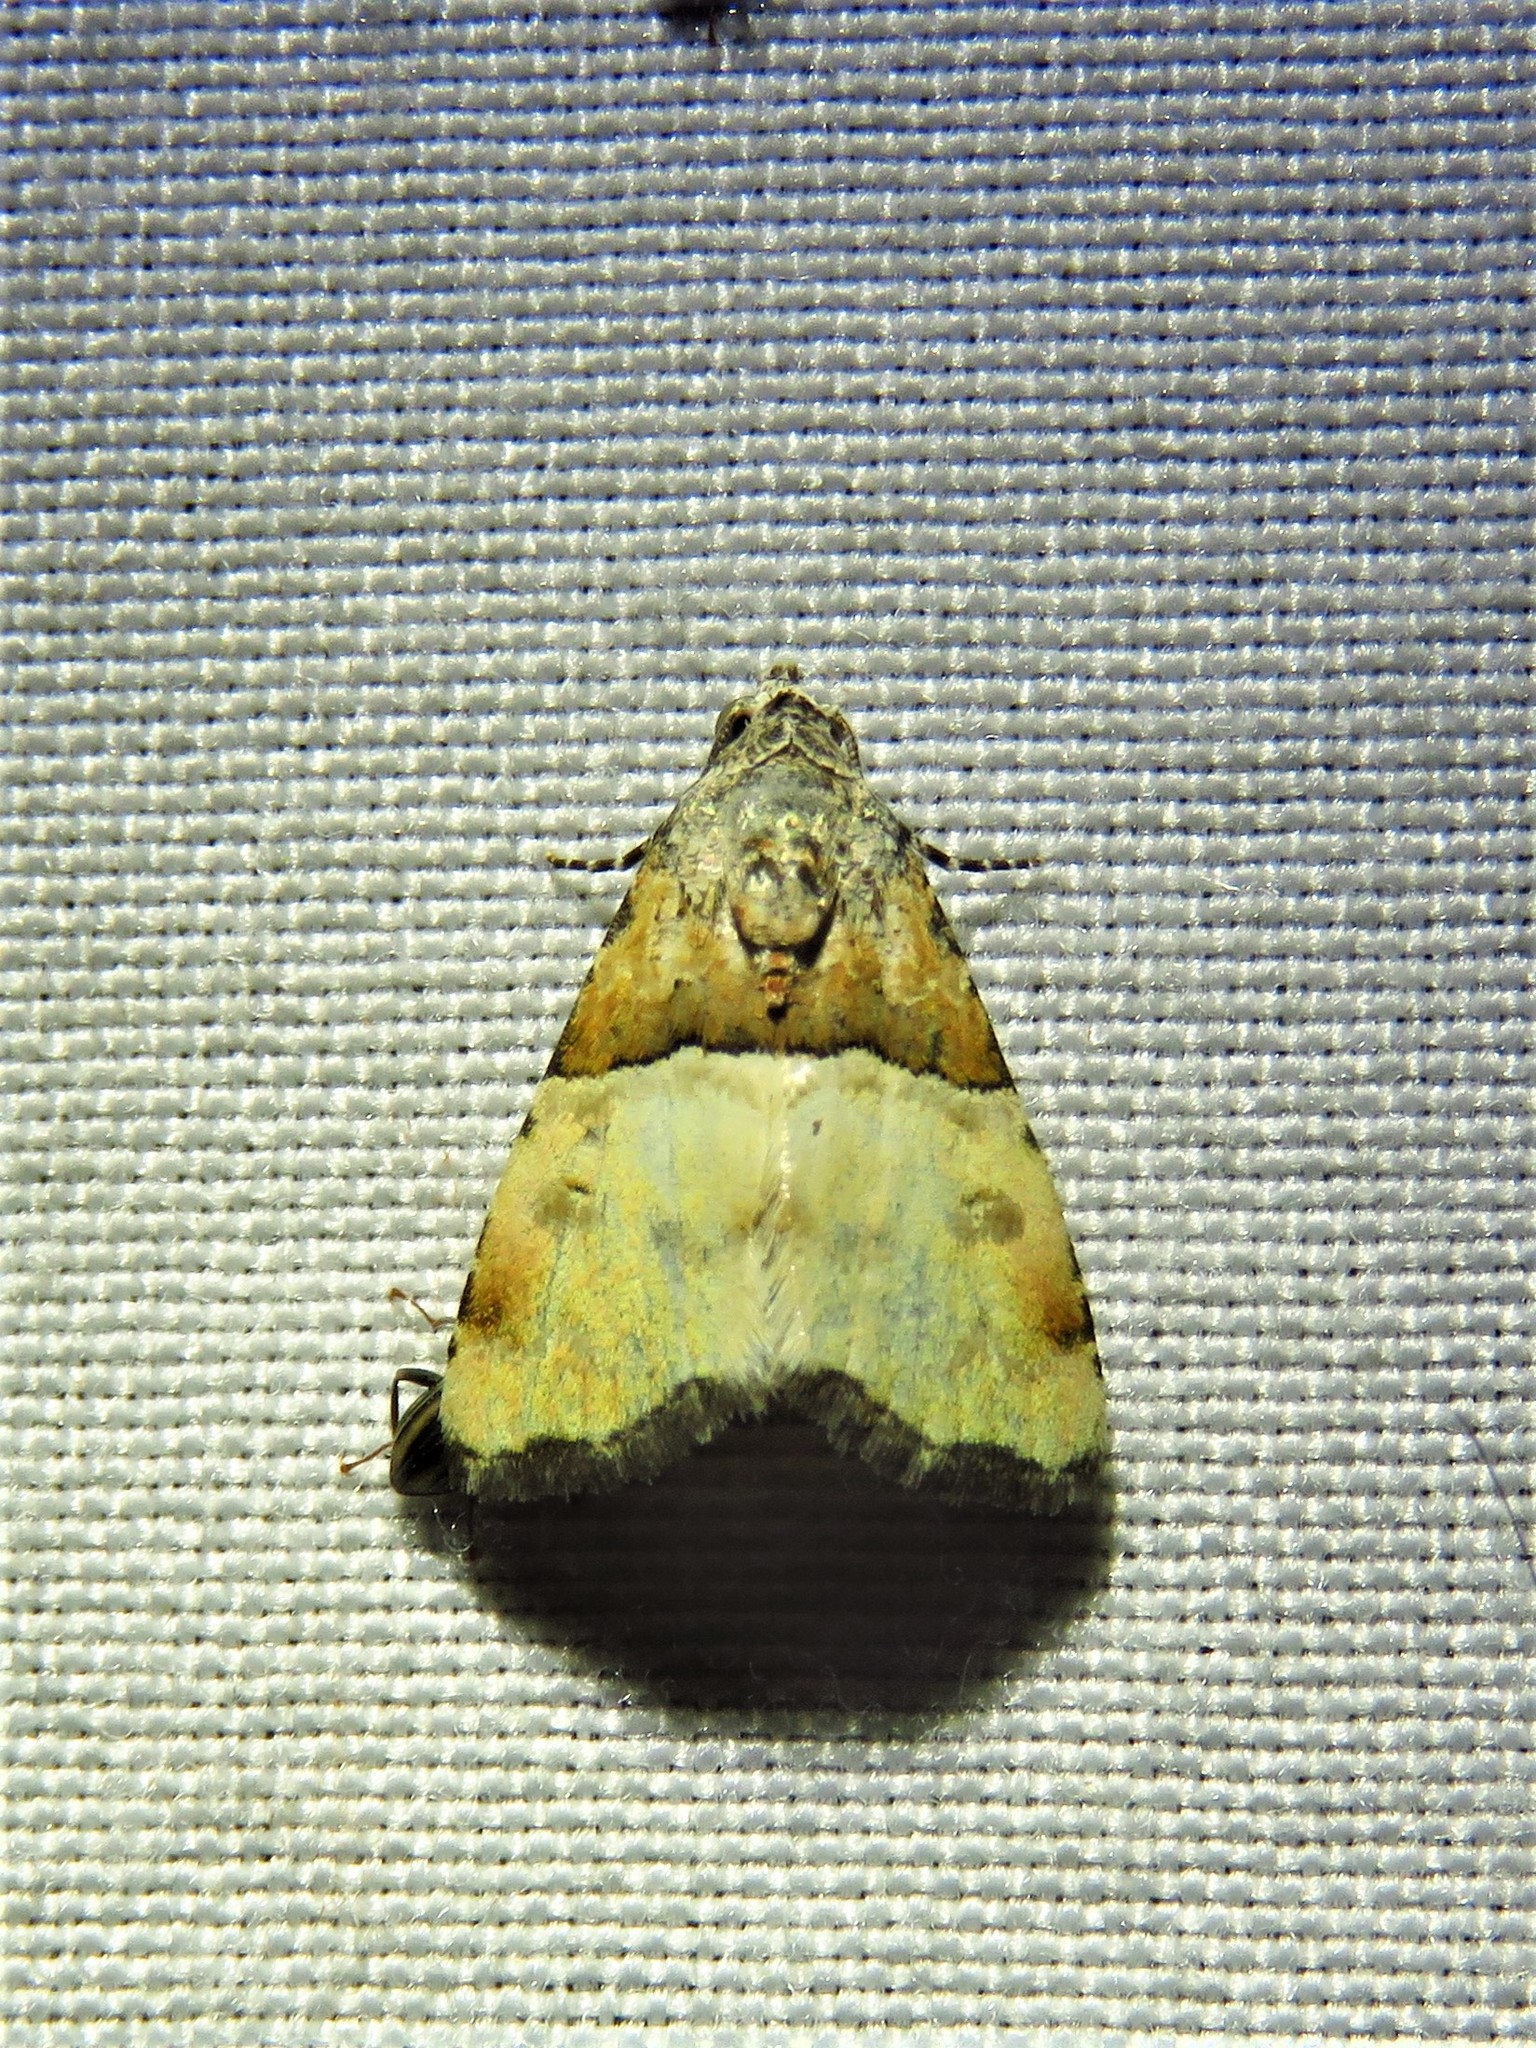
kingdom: Animalia
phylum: Arthropoda
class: Insecta
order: Lepidoptera
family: Noctuidae
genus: Cobubatha
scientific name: Cobubatha dividua
